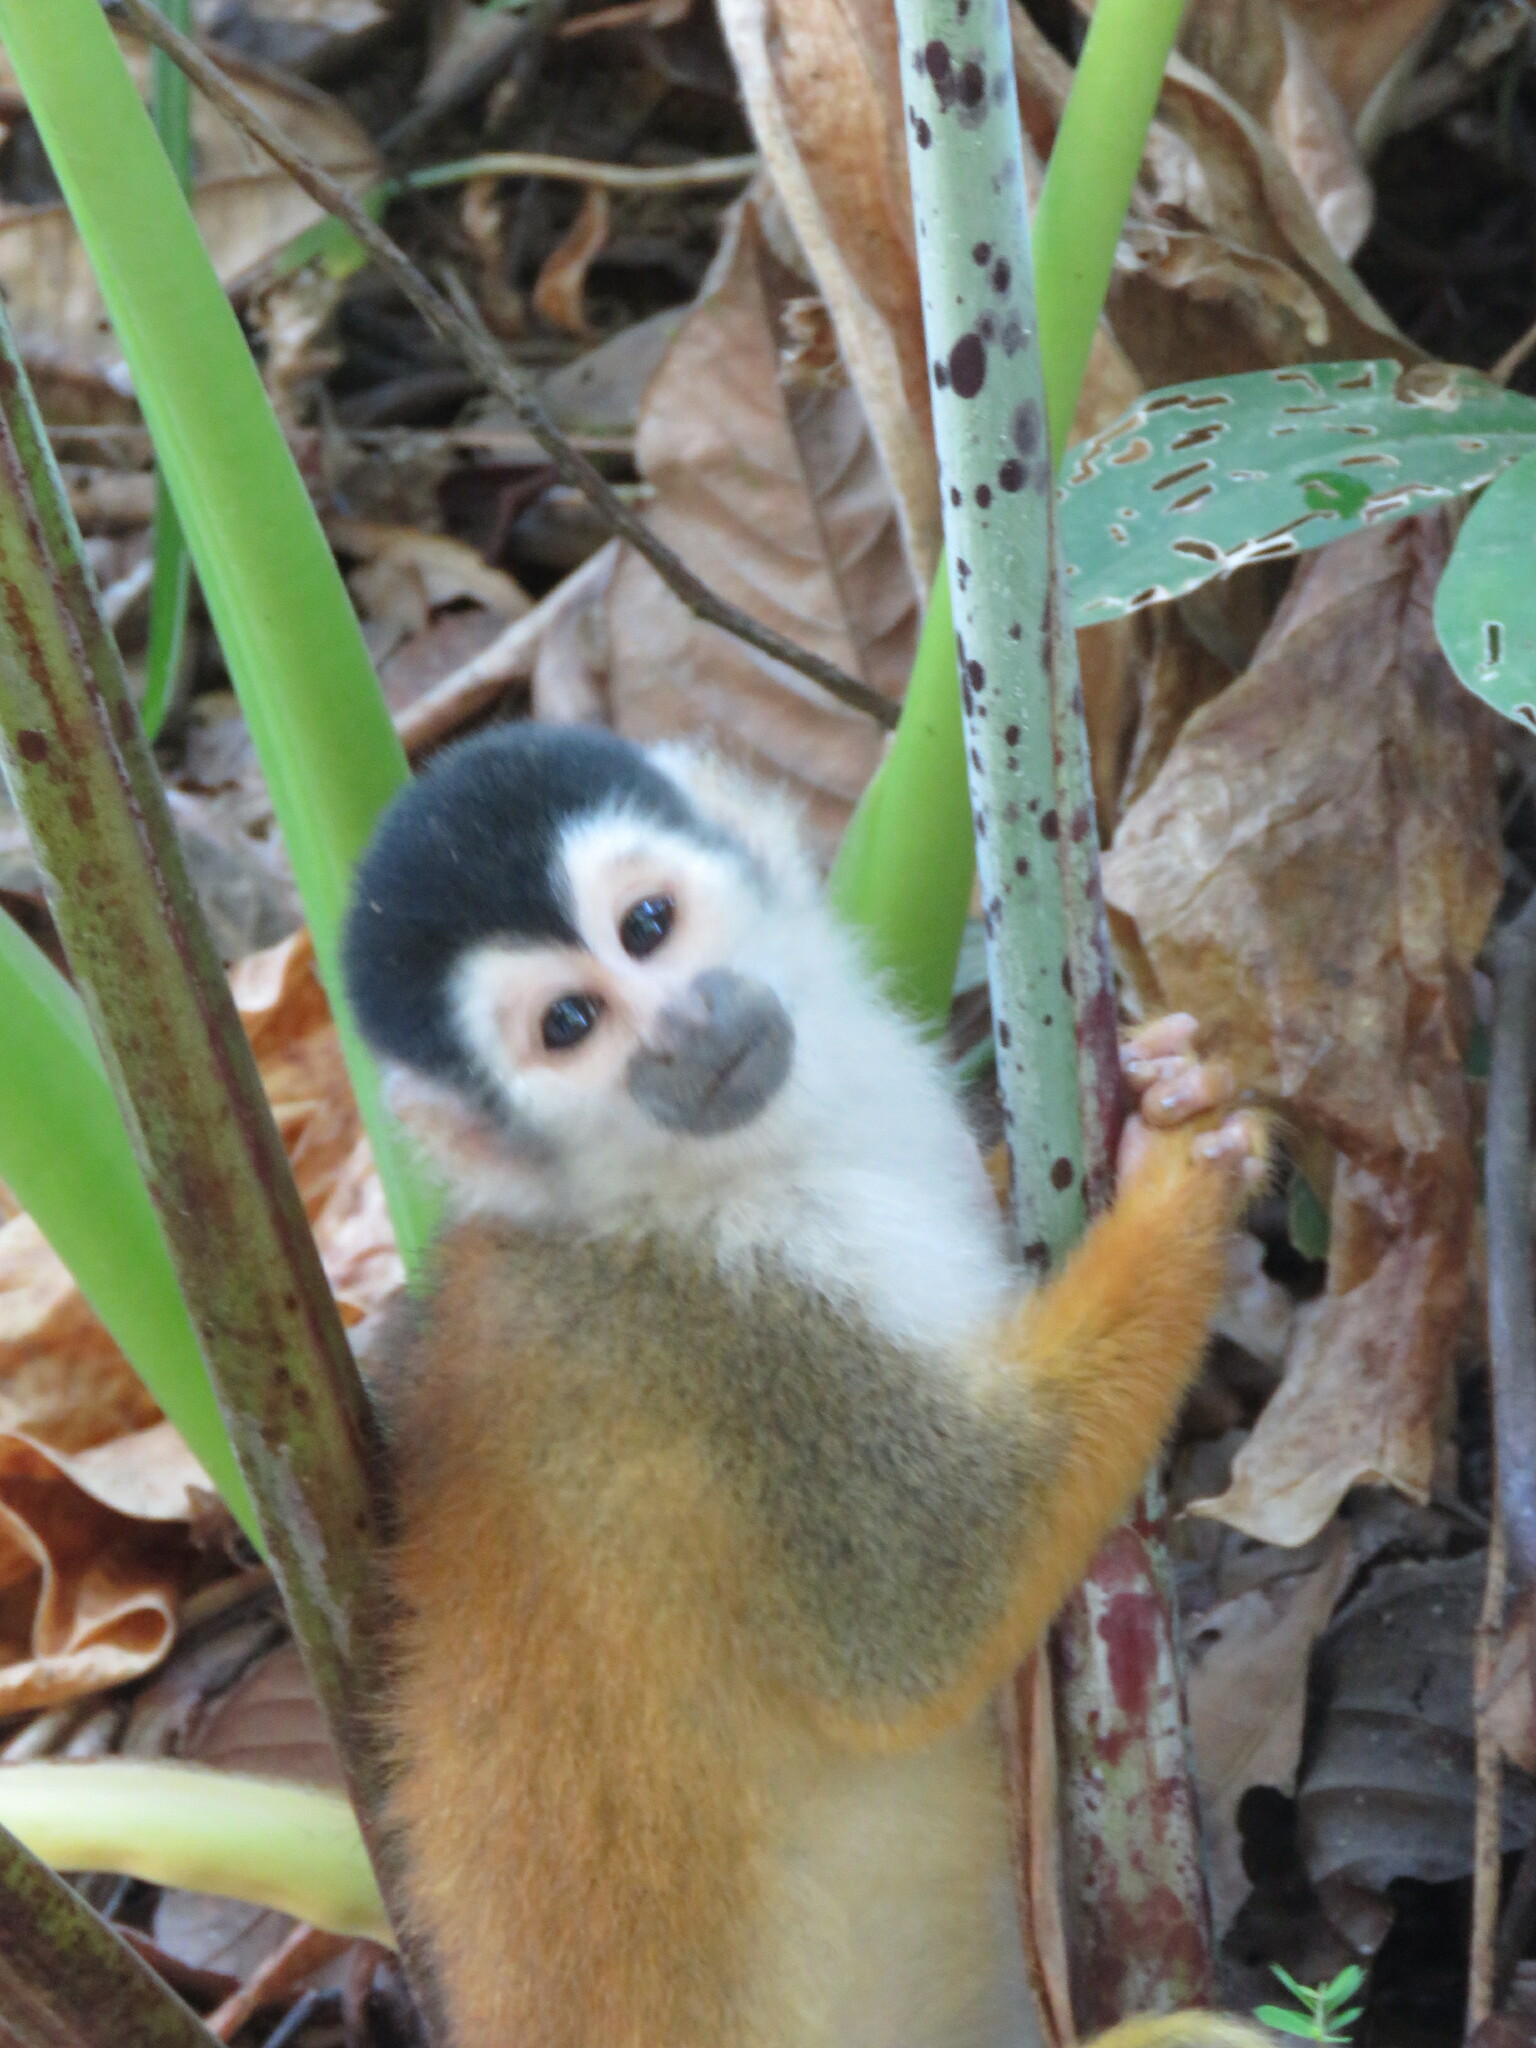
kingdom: Animalia
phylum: Chordata
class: Mammalia
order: Primates
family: Cebidae
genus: Saimiri
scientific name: Saimiri oerstedii
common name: Central american squirrel monkey
